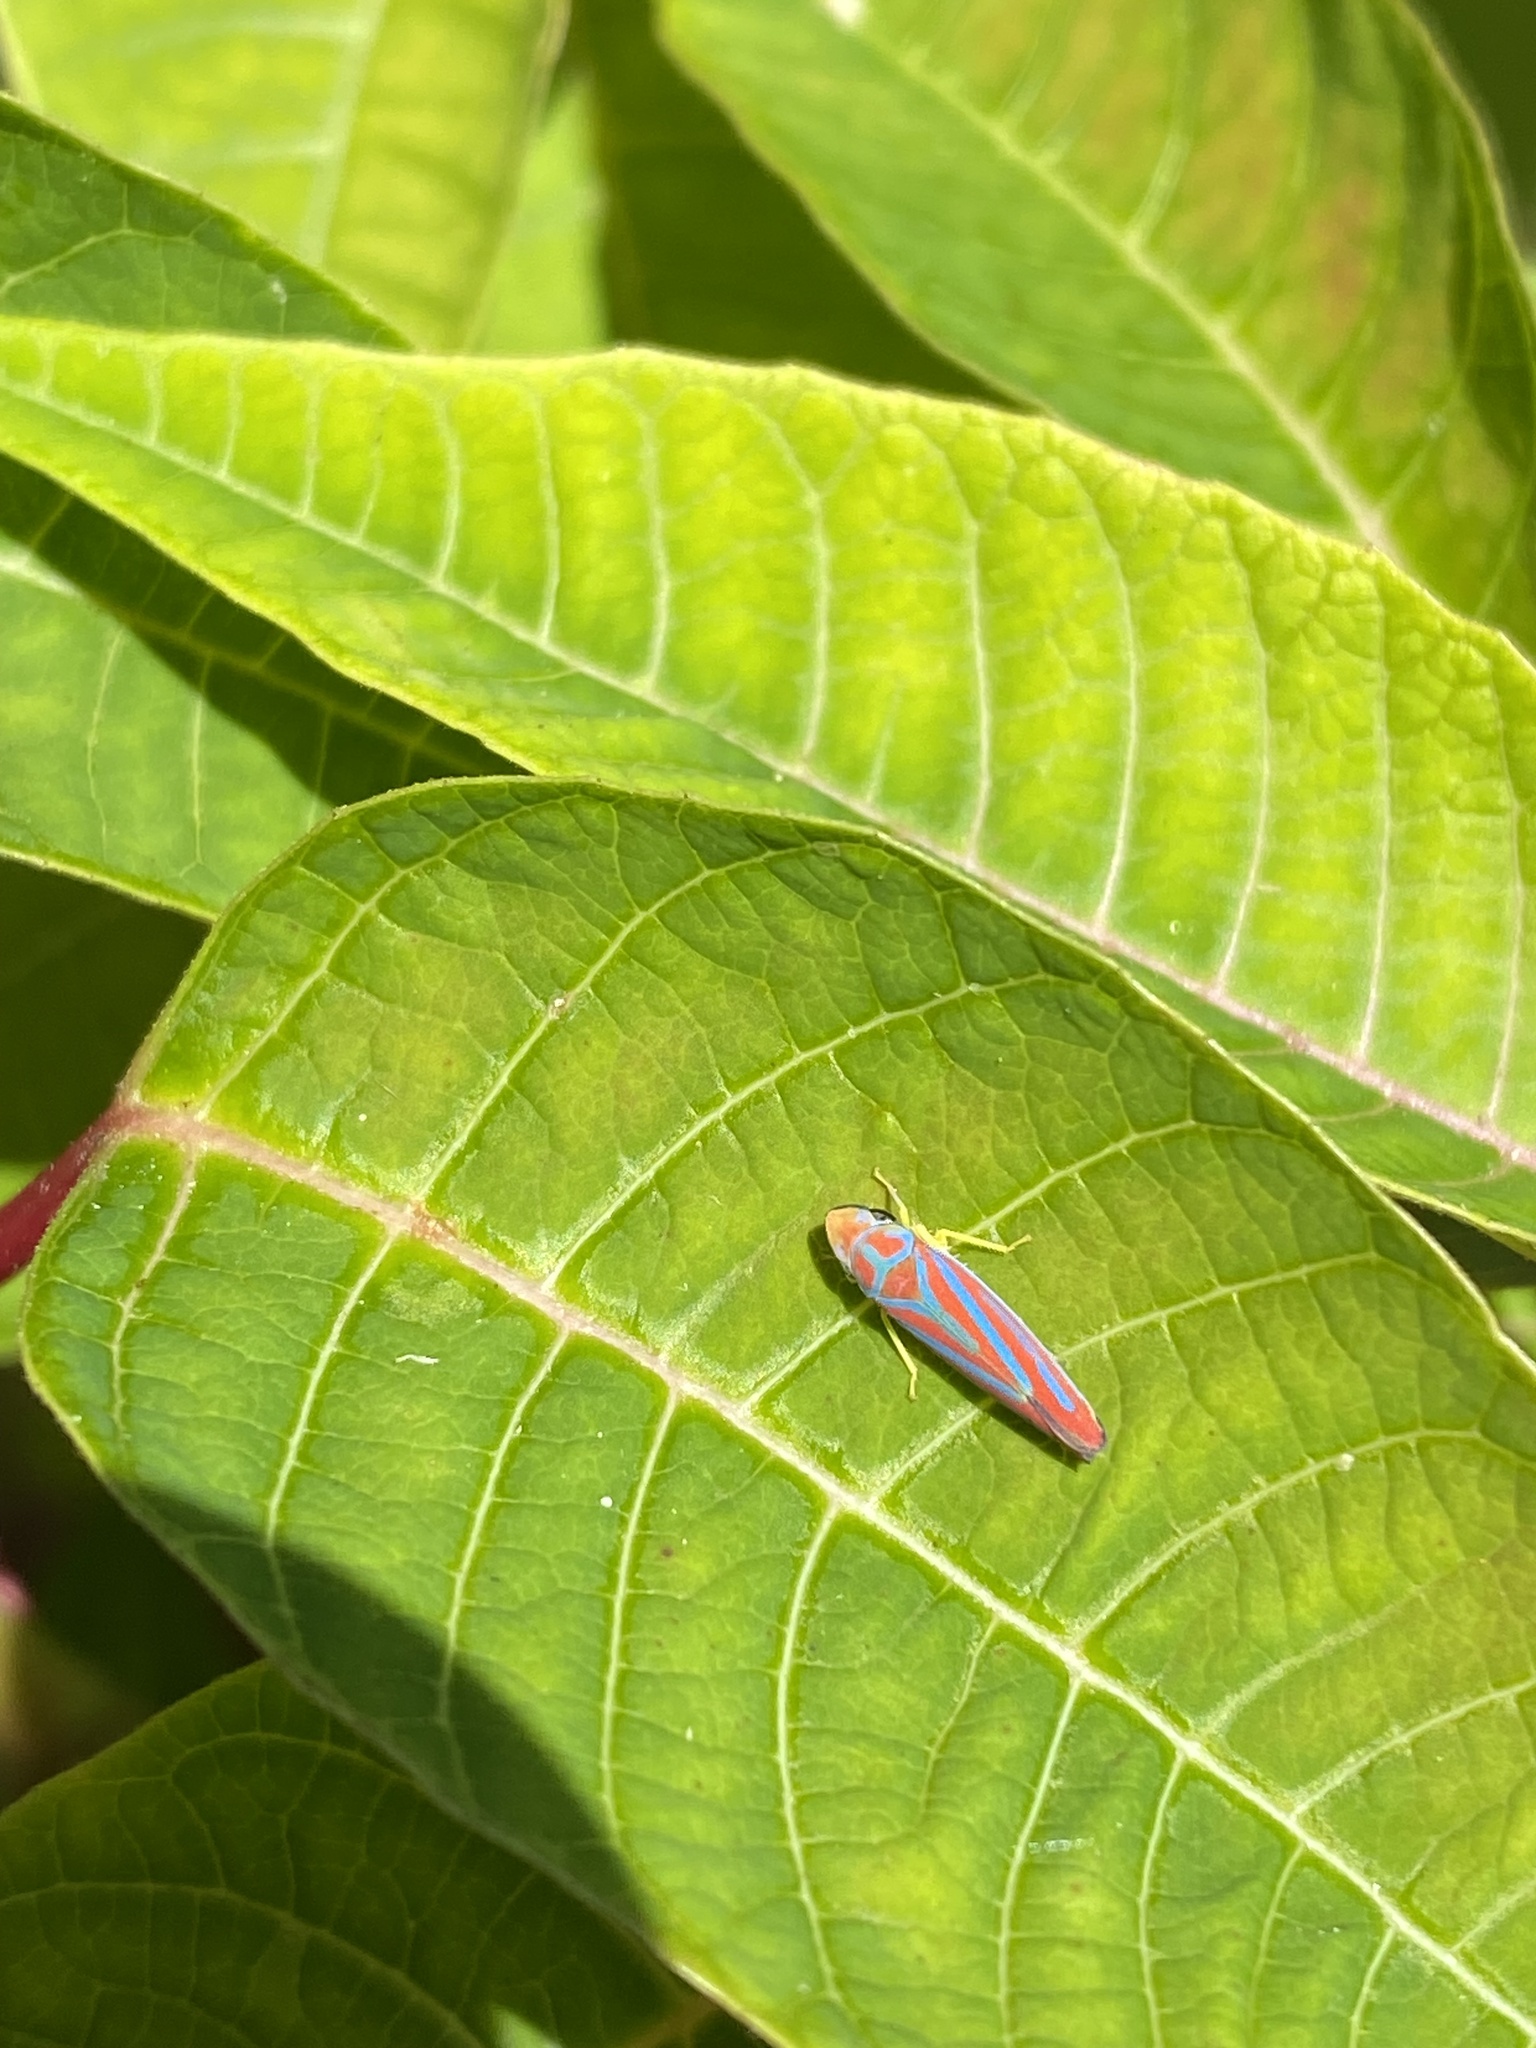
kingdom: Animalia
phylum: Arthropoda
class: Insecta
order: Hemiptera
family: Cicadellidae
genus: Graphocephala
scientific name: Graphocephala coccinea
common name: Candy-striped leafhopper
